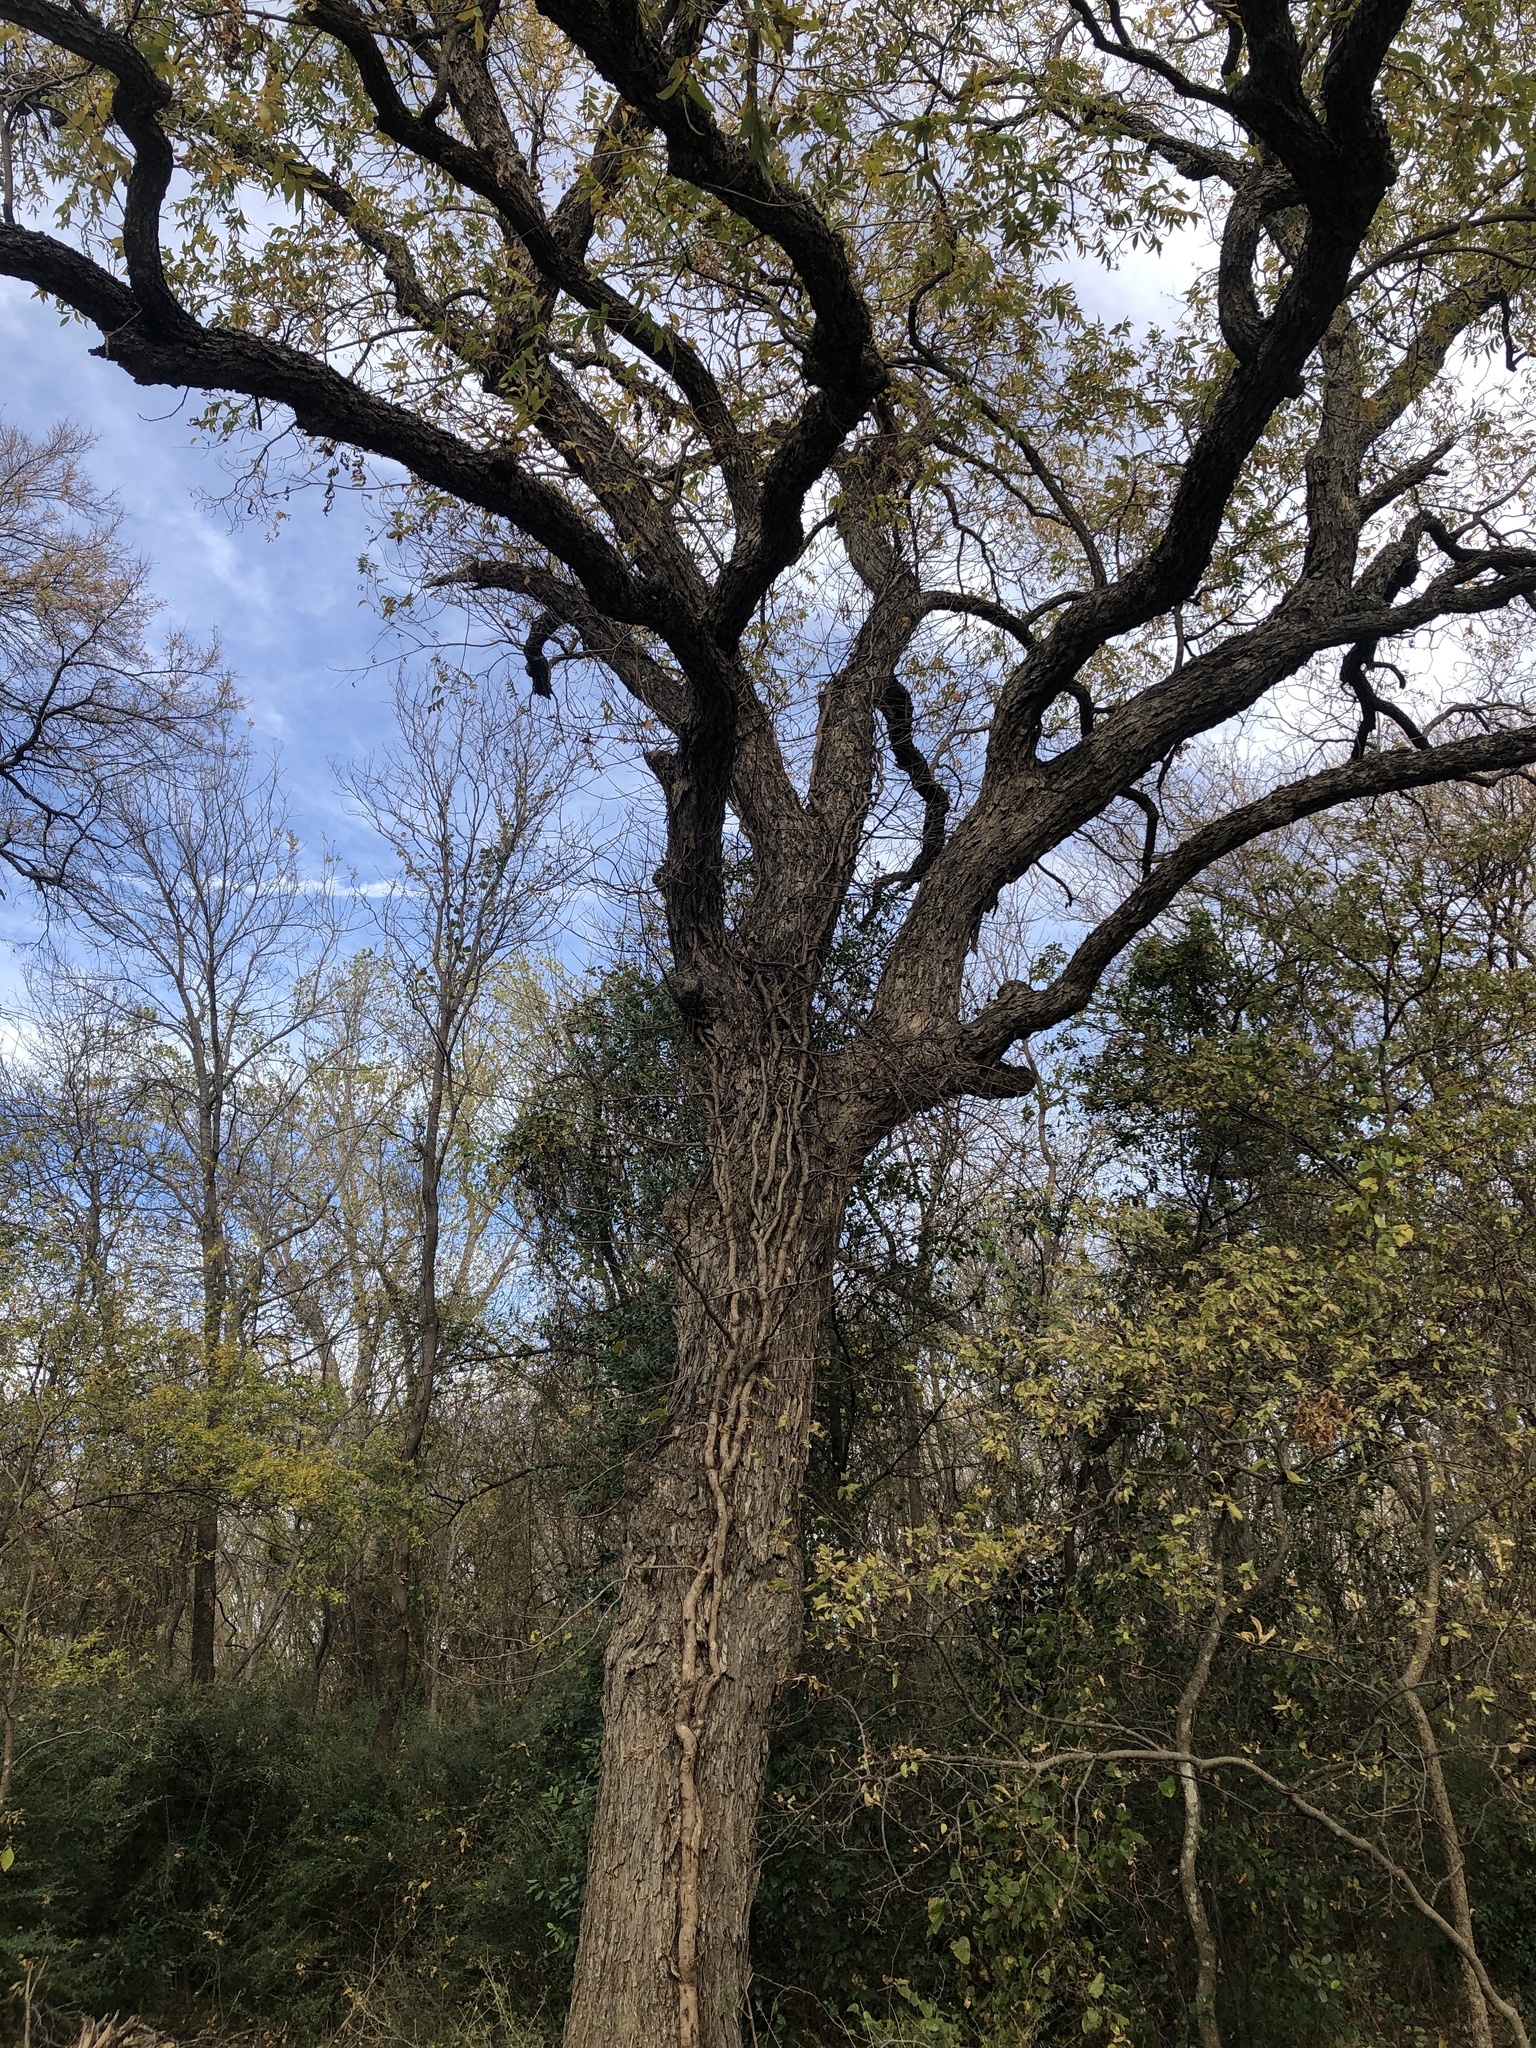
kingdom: Plantae
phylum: Tracheophyta
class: Magnoliopsida
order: Fagales
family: Juglandaceae
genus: Carya
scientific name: Carya illinoinensis
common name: Pecan
